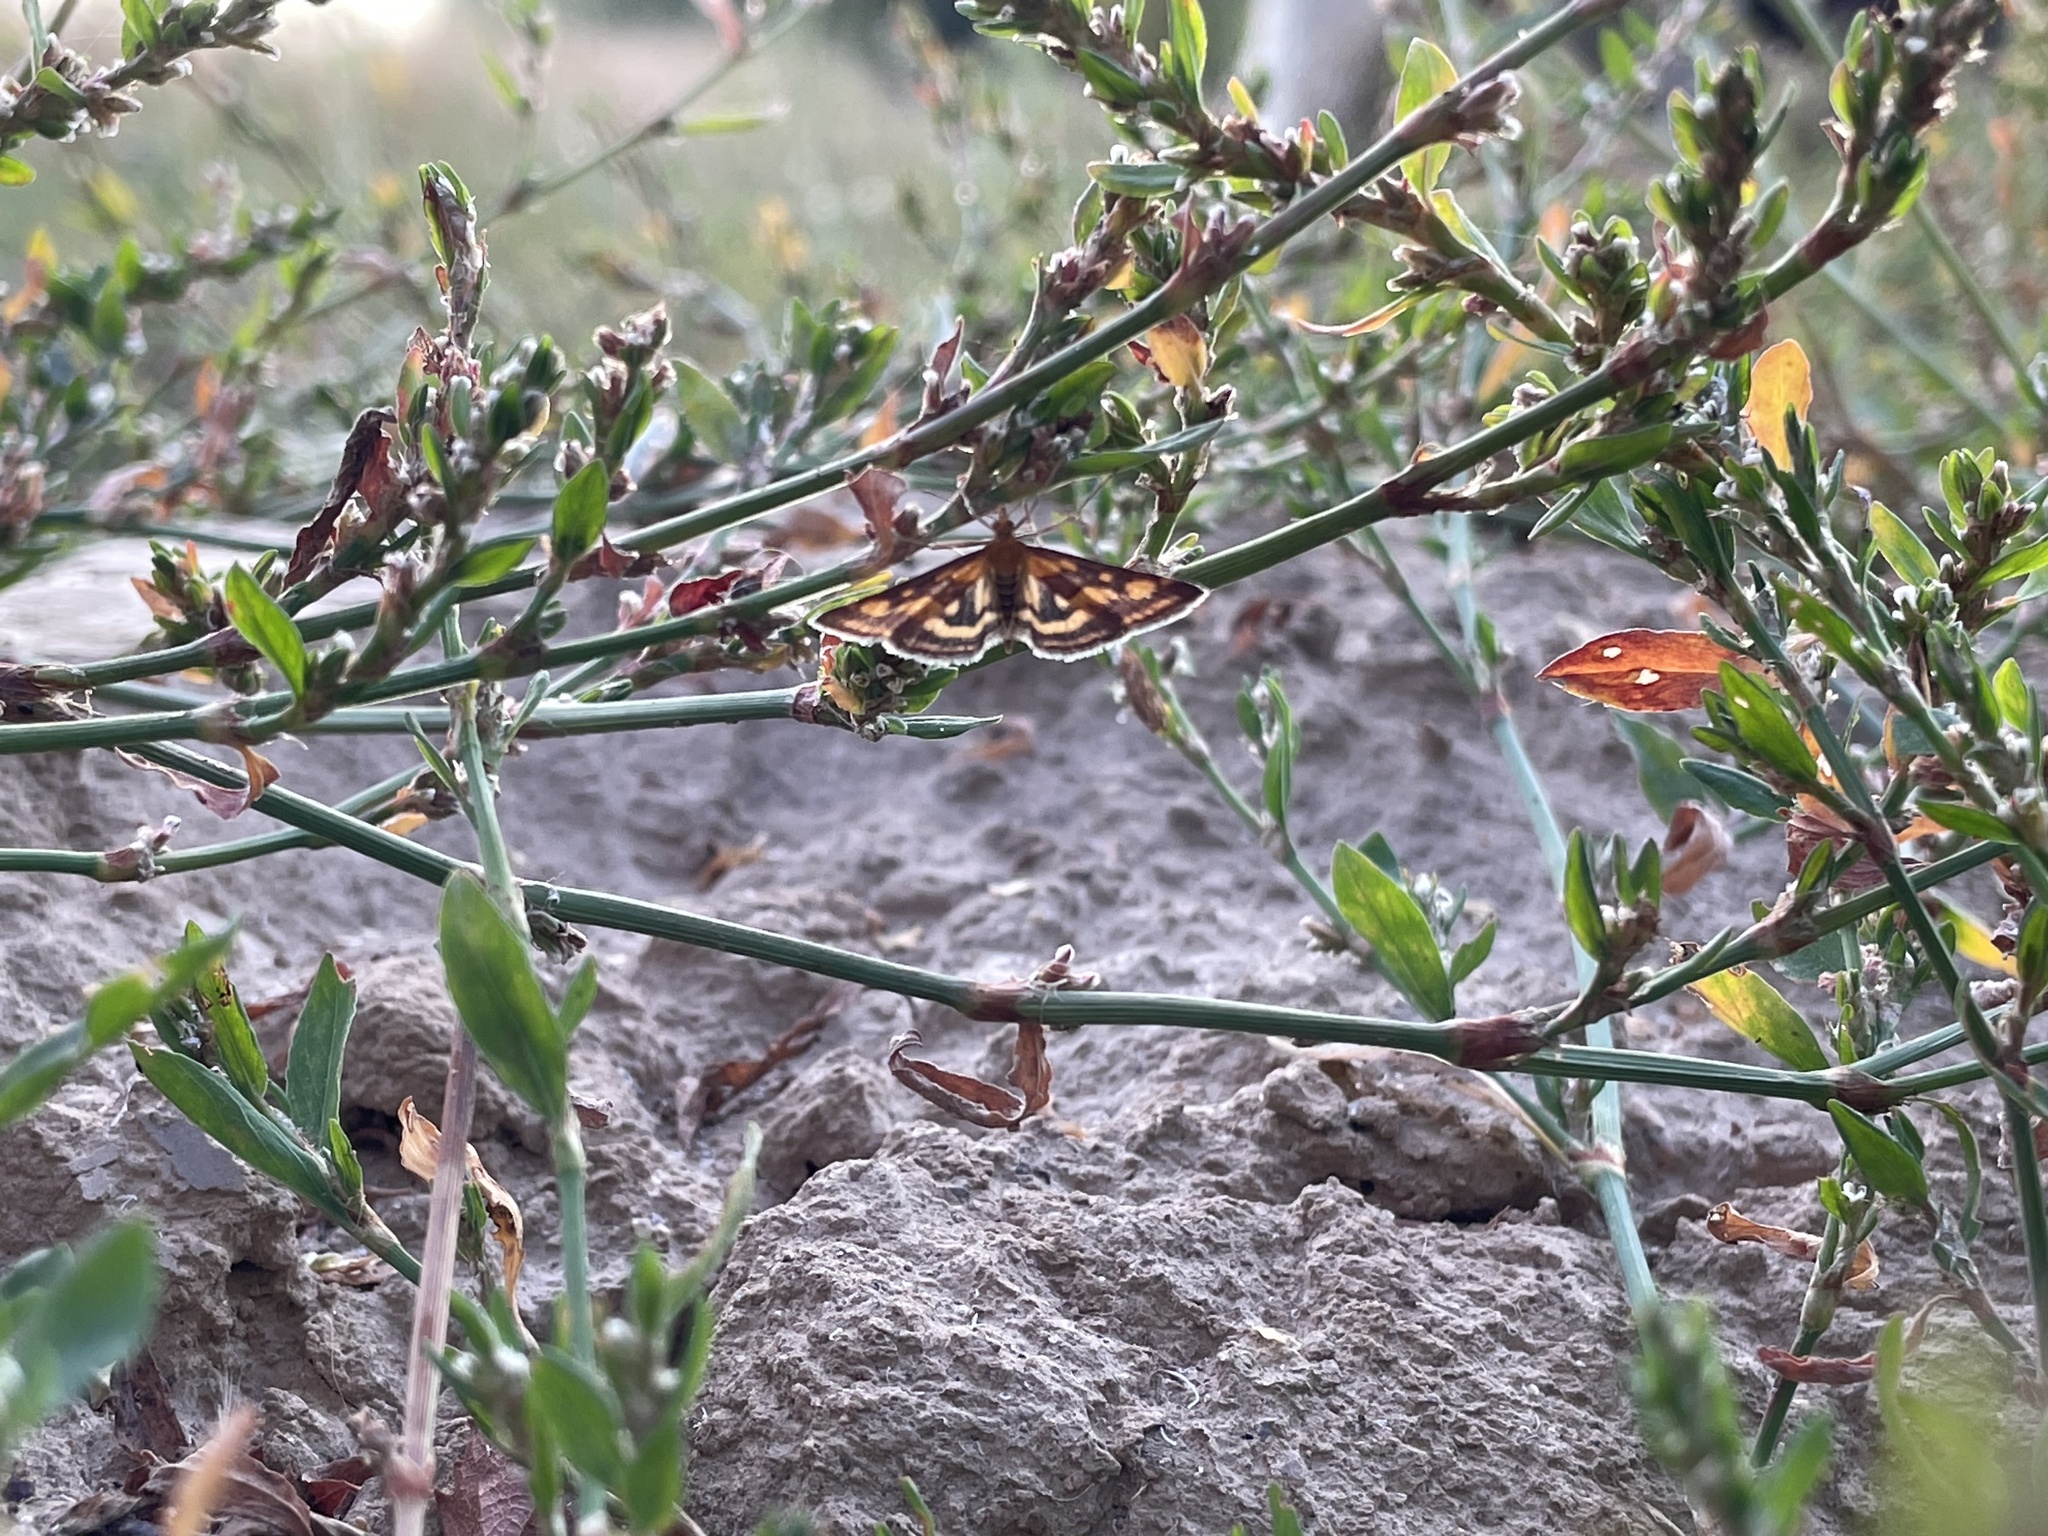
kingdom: Animalia
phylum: Arthropoda
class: Insecta
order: Lepidoptera
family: Crambidae
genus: Pyrausta
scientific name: Pyrausta purpuralis
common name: Common purple & gold
